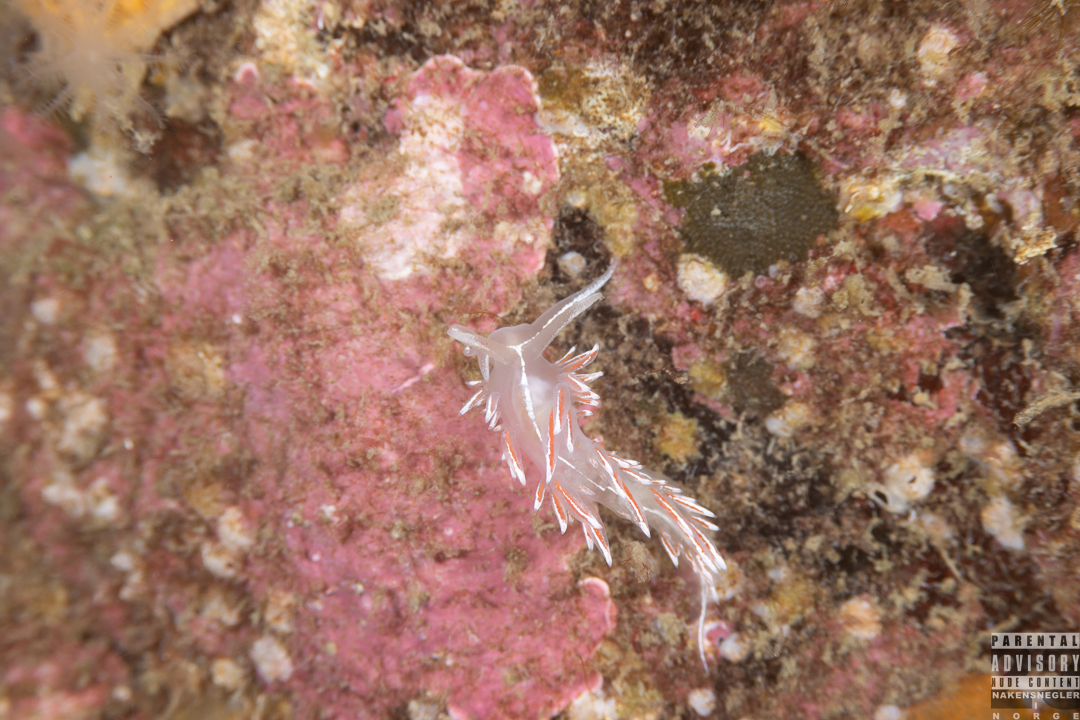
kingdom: Animalia
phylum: Mollusca
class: Gastropoda
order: Nudibranchia
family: Coryphellidae
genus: Coryphella
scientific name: Coryphella lineata
